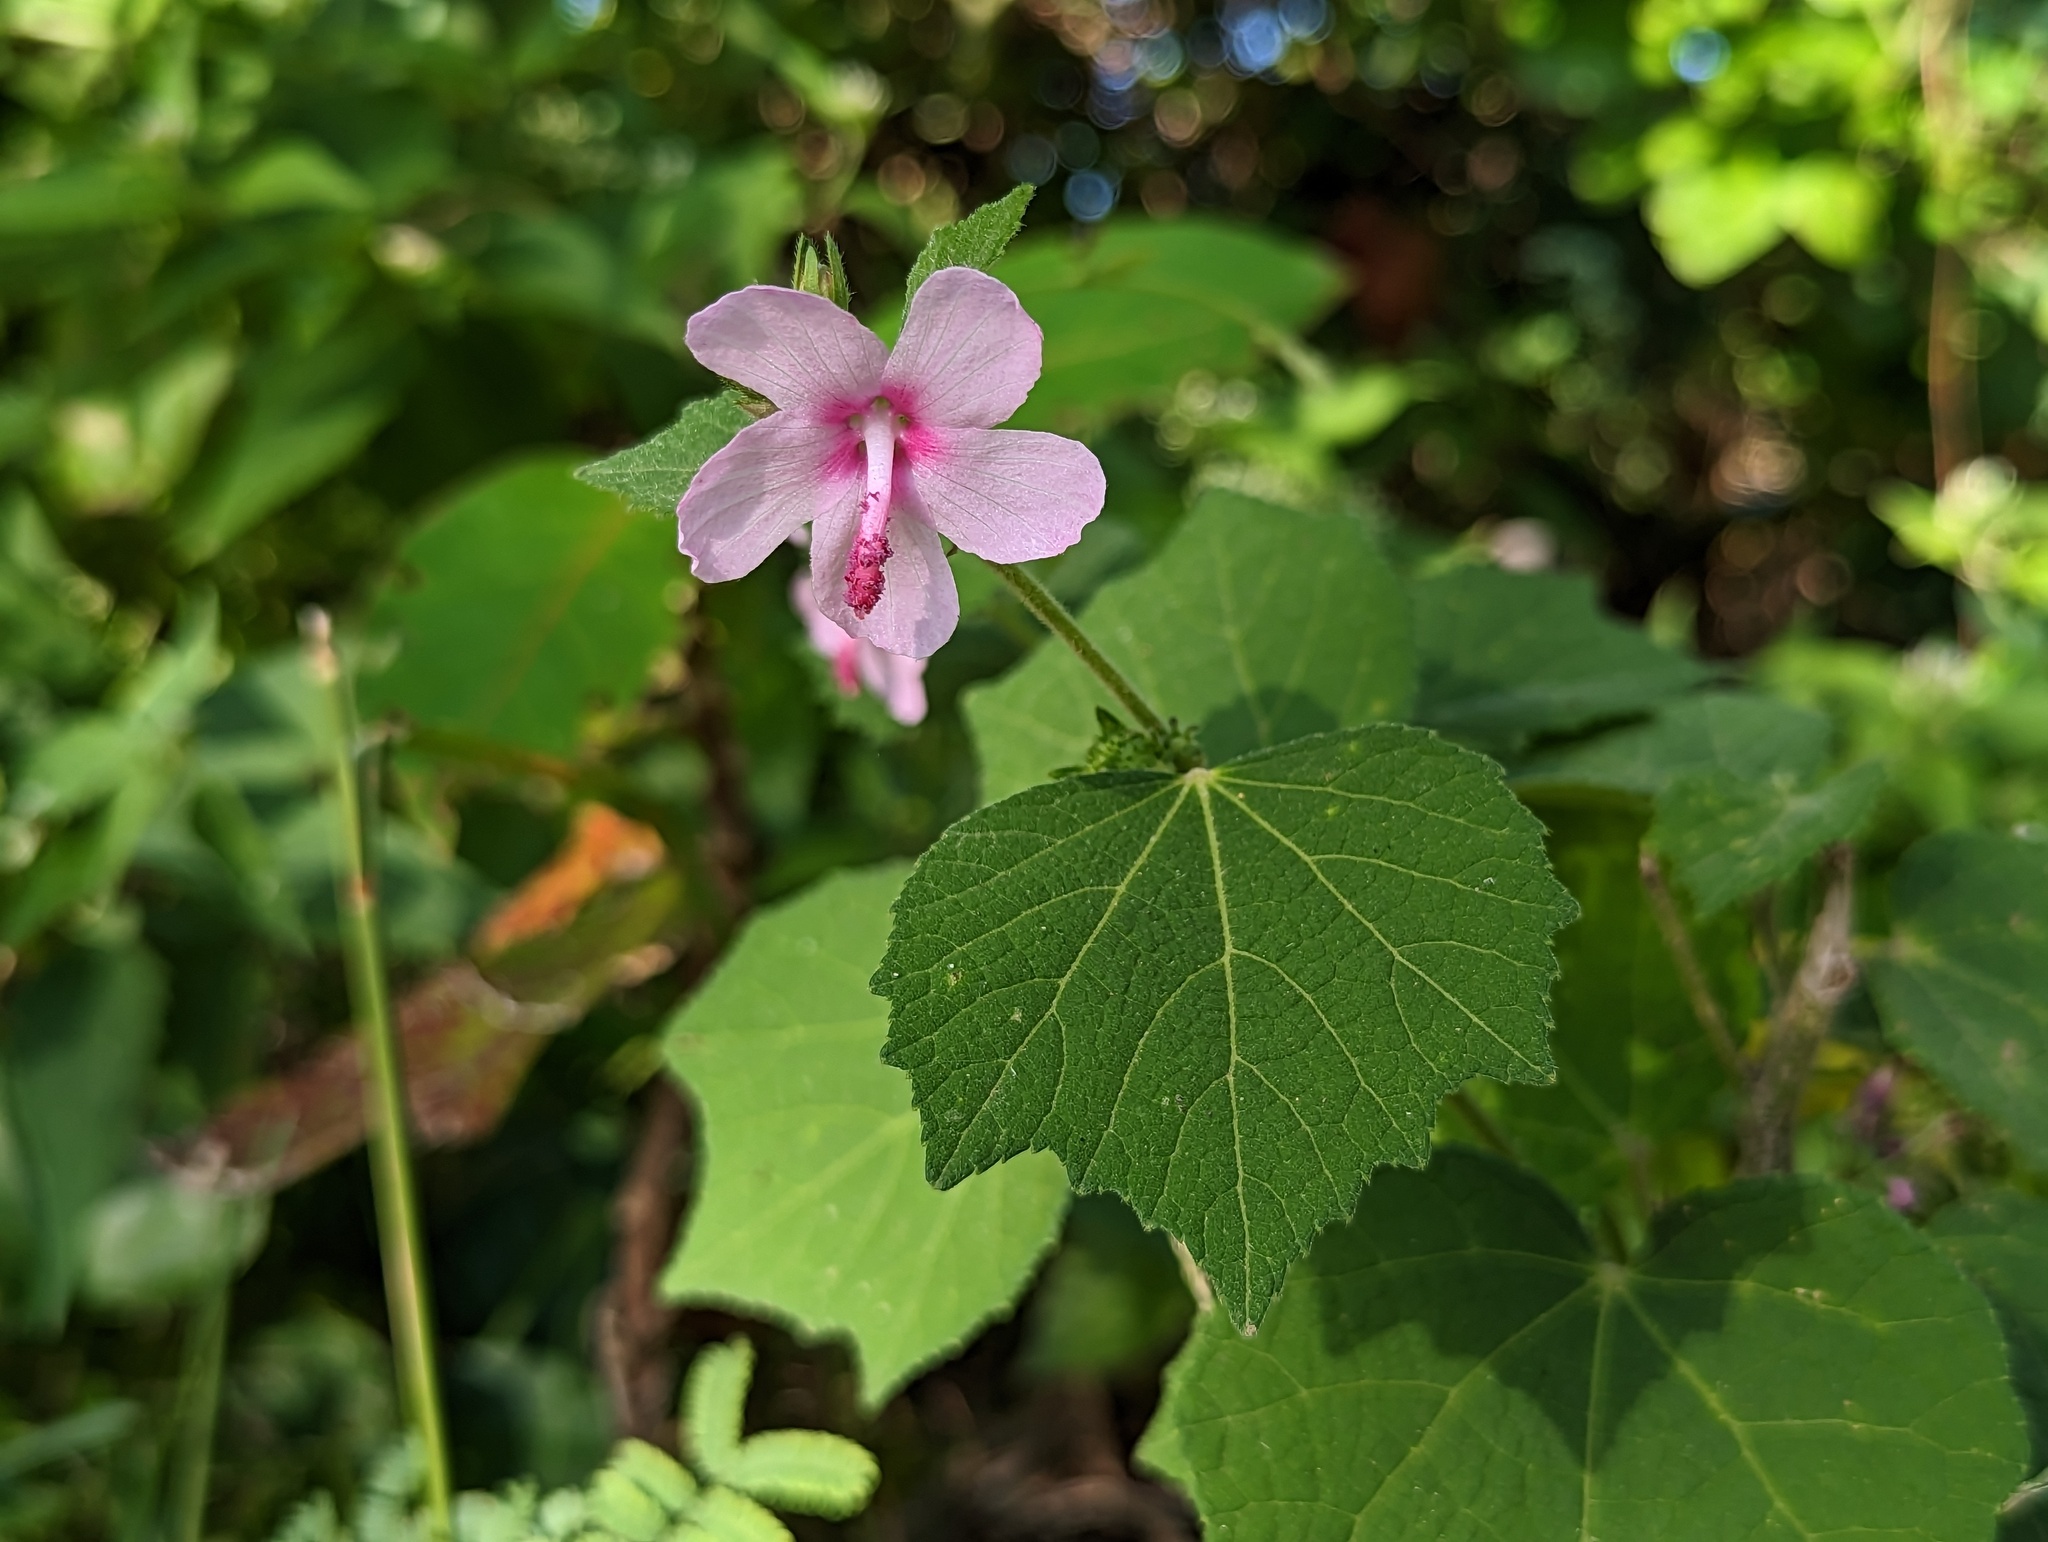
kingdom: Plantae
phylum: Tracheophyta
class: Magnoliopsida
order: Malvales
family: Malvaceae
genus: Urena
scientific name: Urena lobata
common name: Caesarweed
